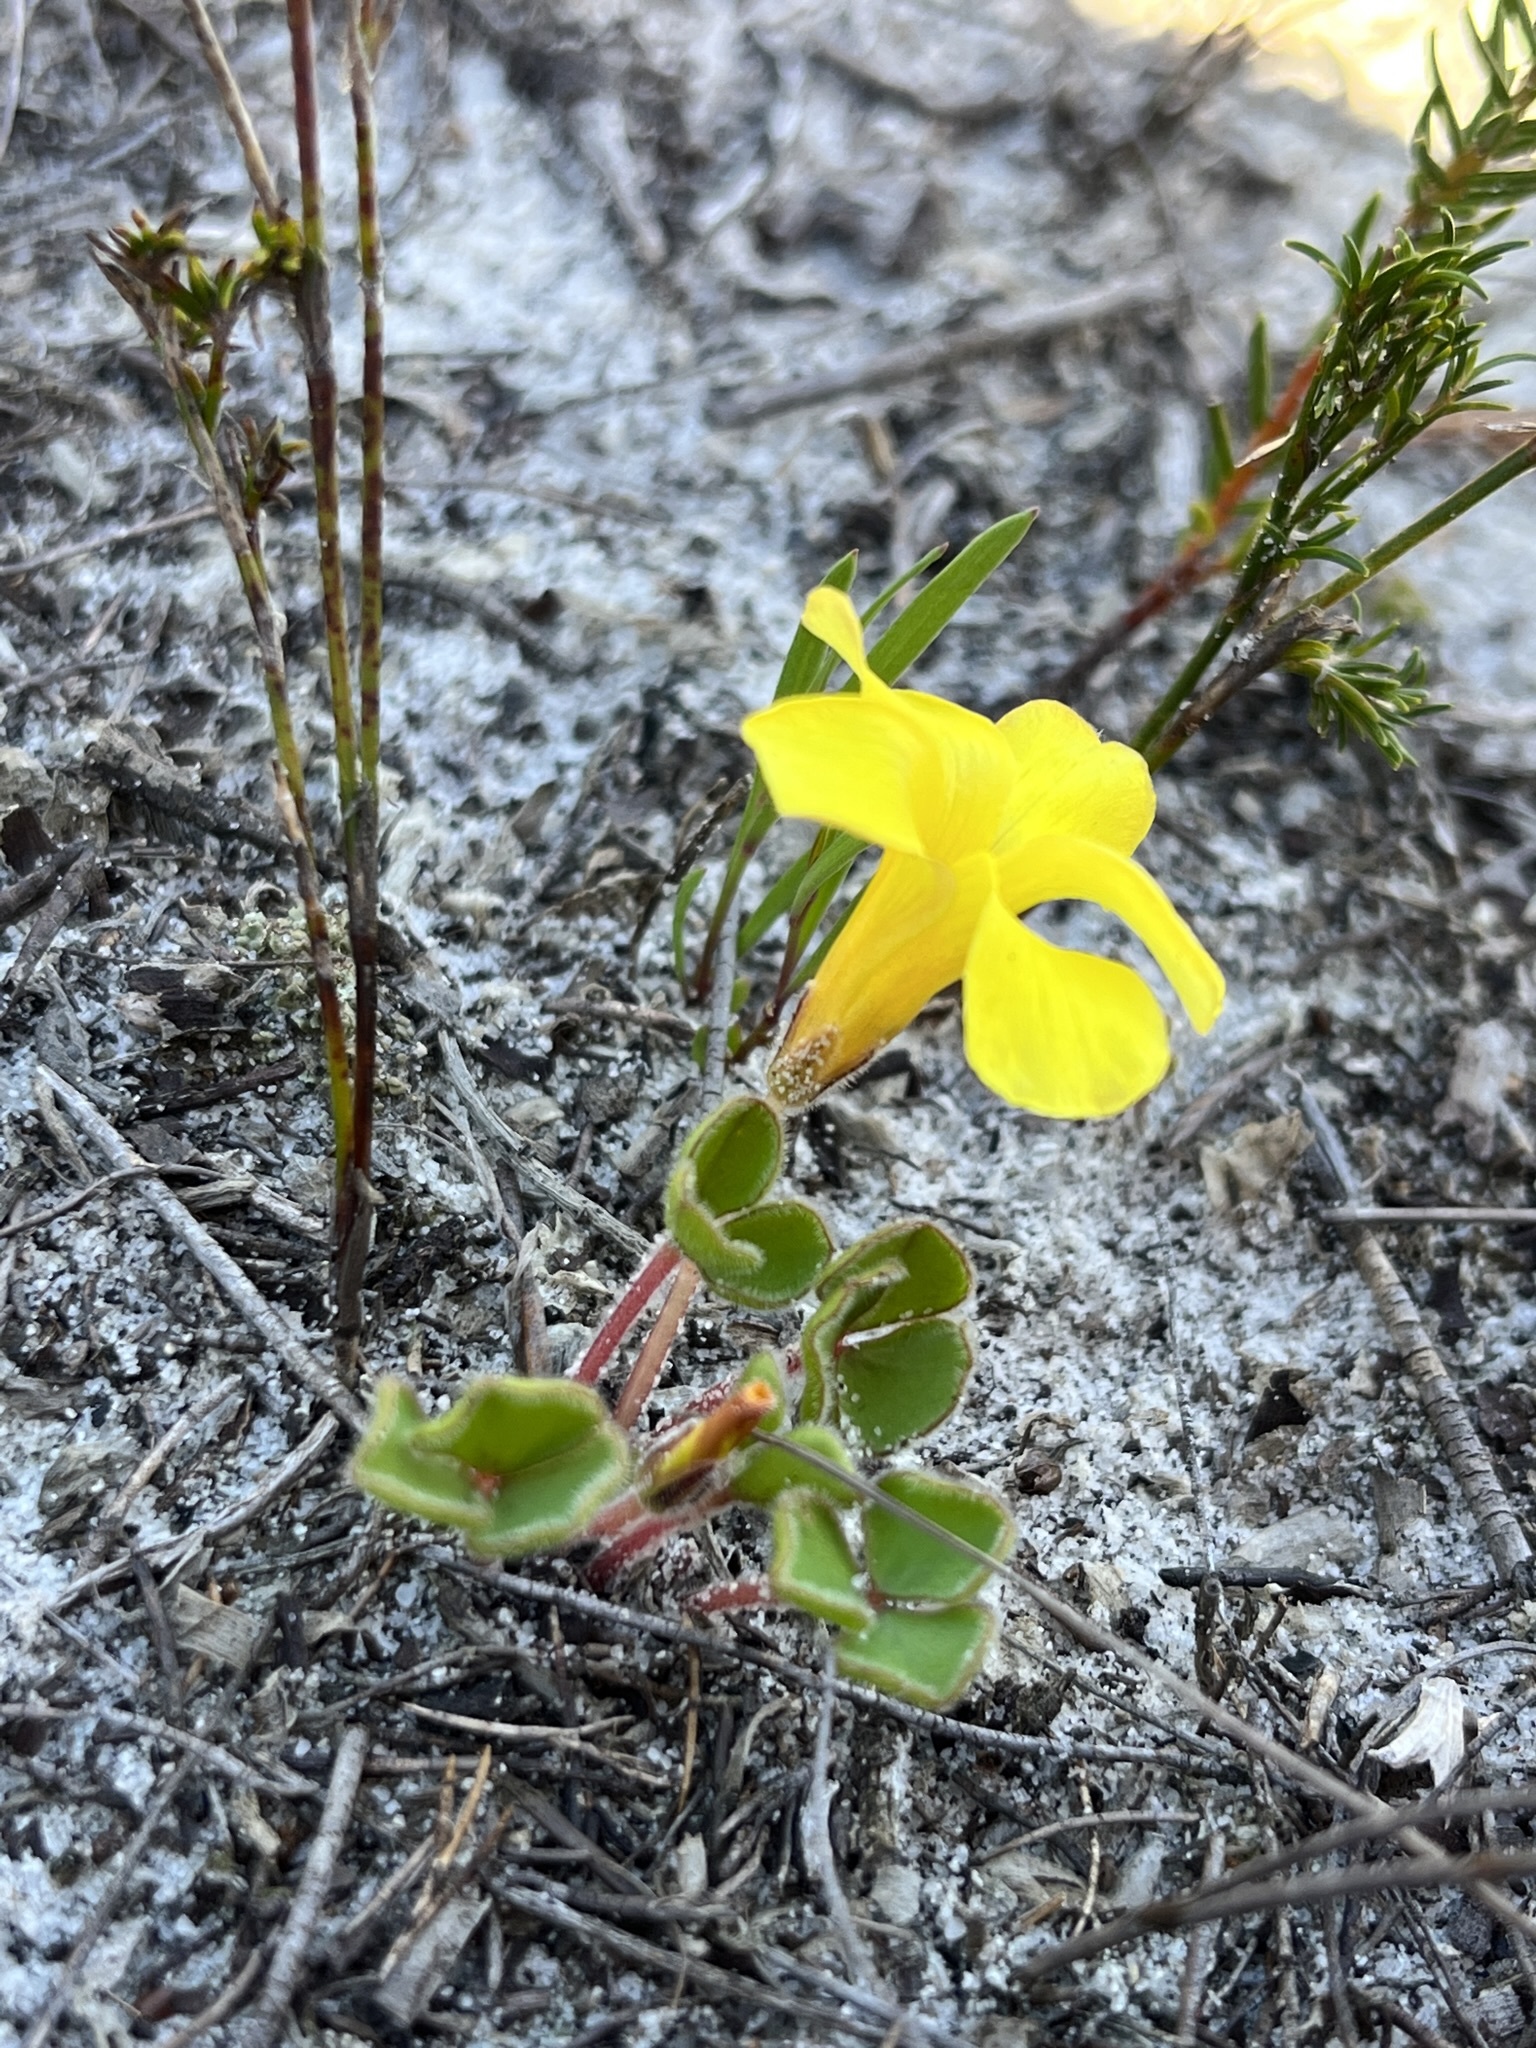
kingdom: Plantae
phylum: Tracheophyta
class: Magnoliopsida
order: Oxalidales
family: Oxalidaceae
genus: Oxalis
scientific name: Oxalis luteola
